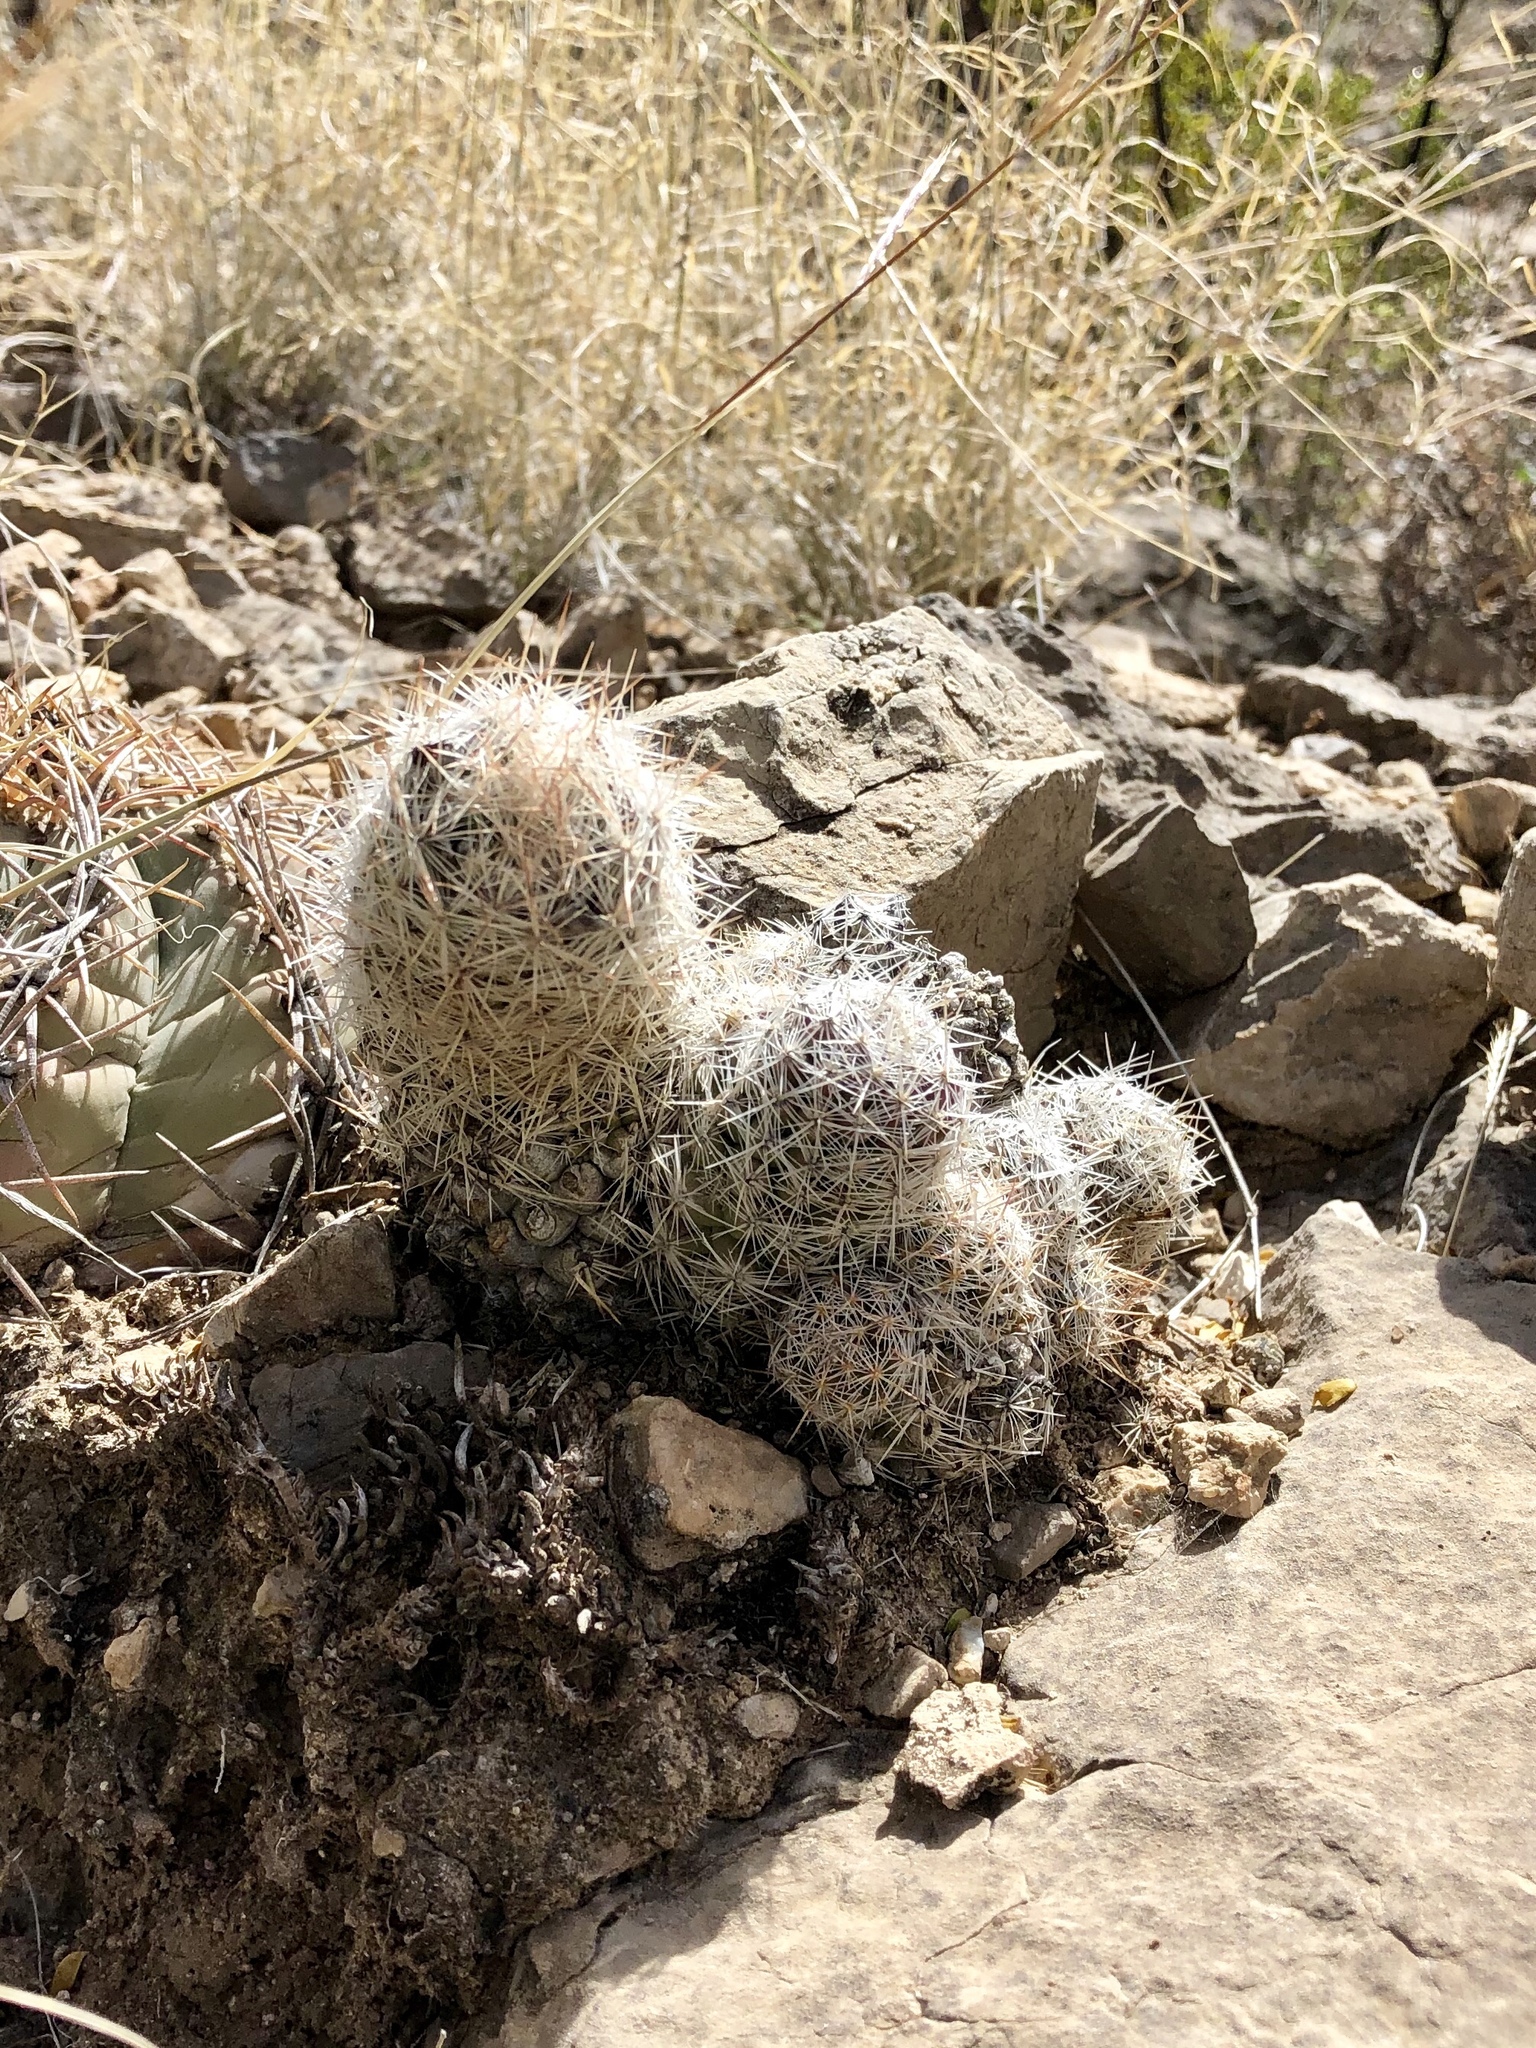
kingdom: Plantae
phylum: Tracheophyta
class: Magnoliopsida
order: Caryophyllales
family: Cactaceae
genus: Pelecyphora
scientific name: Pelecyphora tuberculosa
